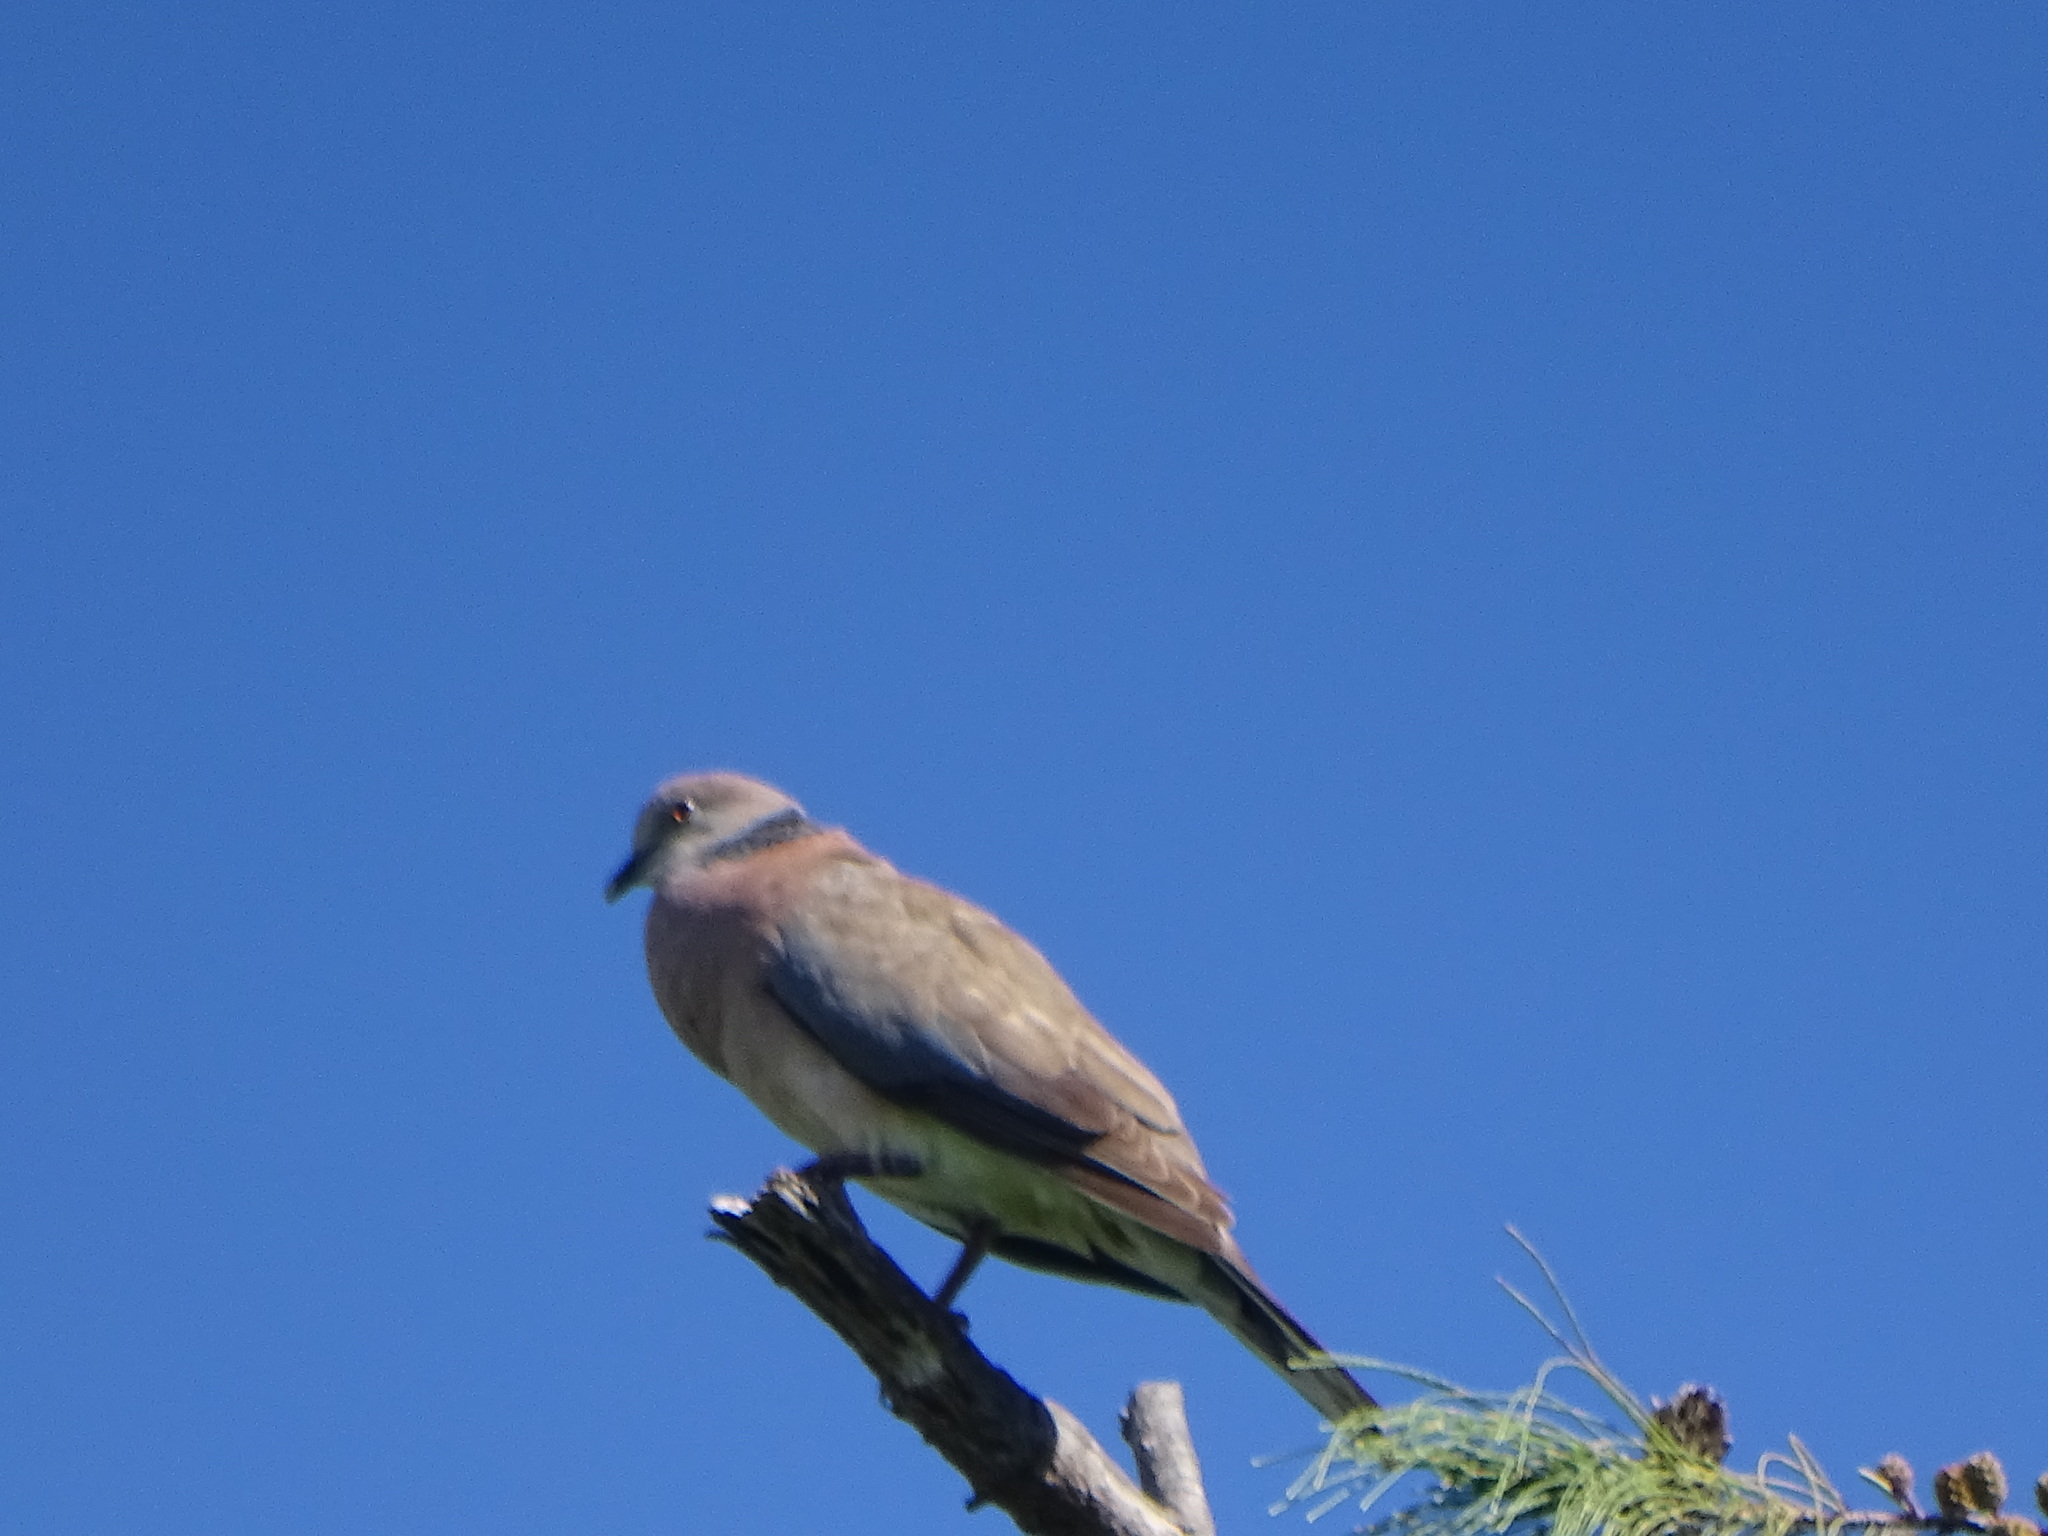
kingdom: Animalia
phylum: Chordata
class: Aves
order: Columbiformes
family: Columbidae
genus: Streptopelia
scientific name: Streptopelia bitorquata
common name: Island collared dove
